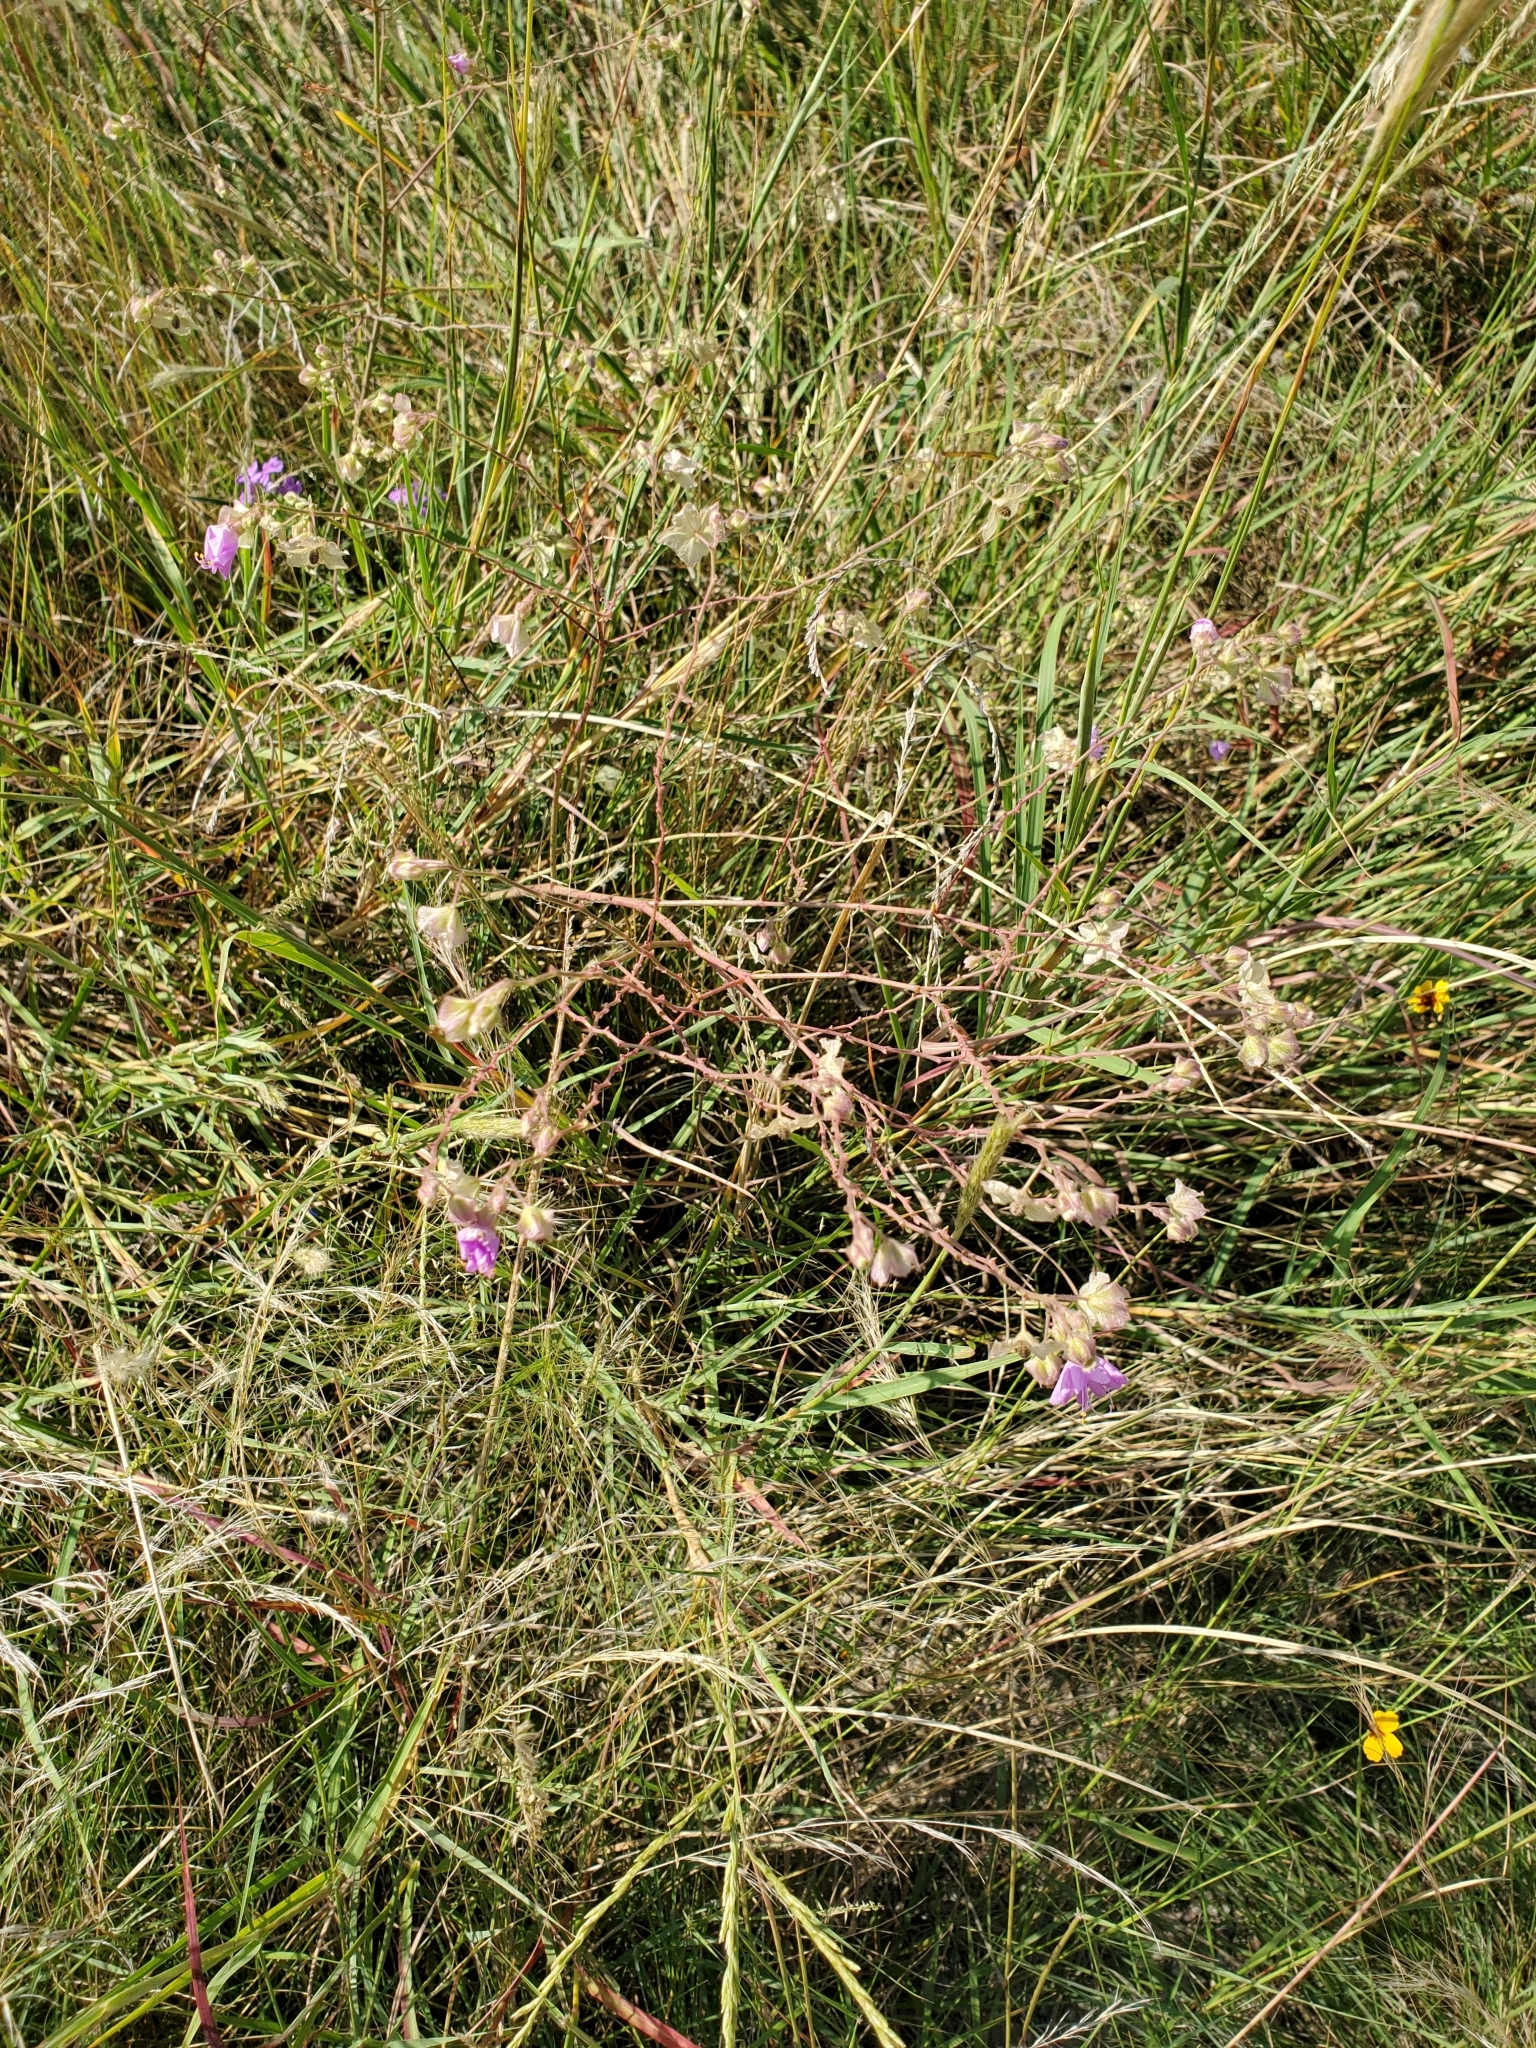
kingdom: Plantae
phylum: Tracheophyta
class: Magnoliopsida
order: Caryophyllales
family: Nyctaginaceae
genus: Mirabilis
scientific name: Mirabilis linearis
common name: Linear-leaved four-o'clock
